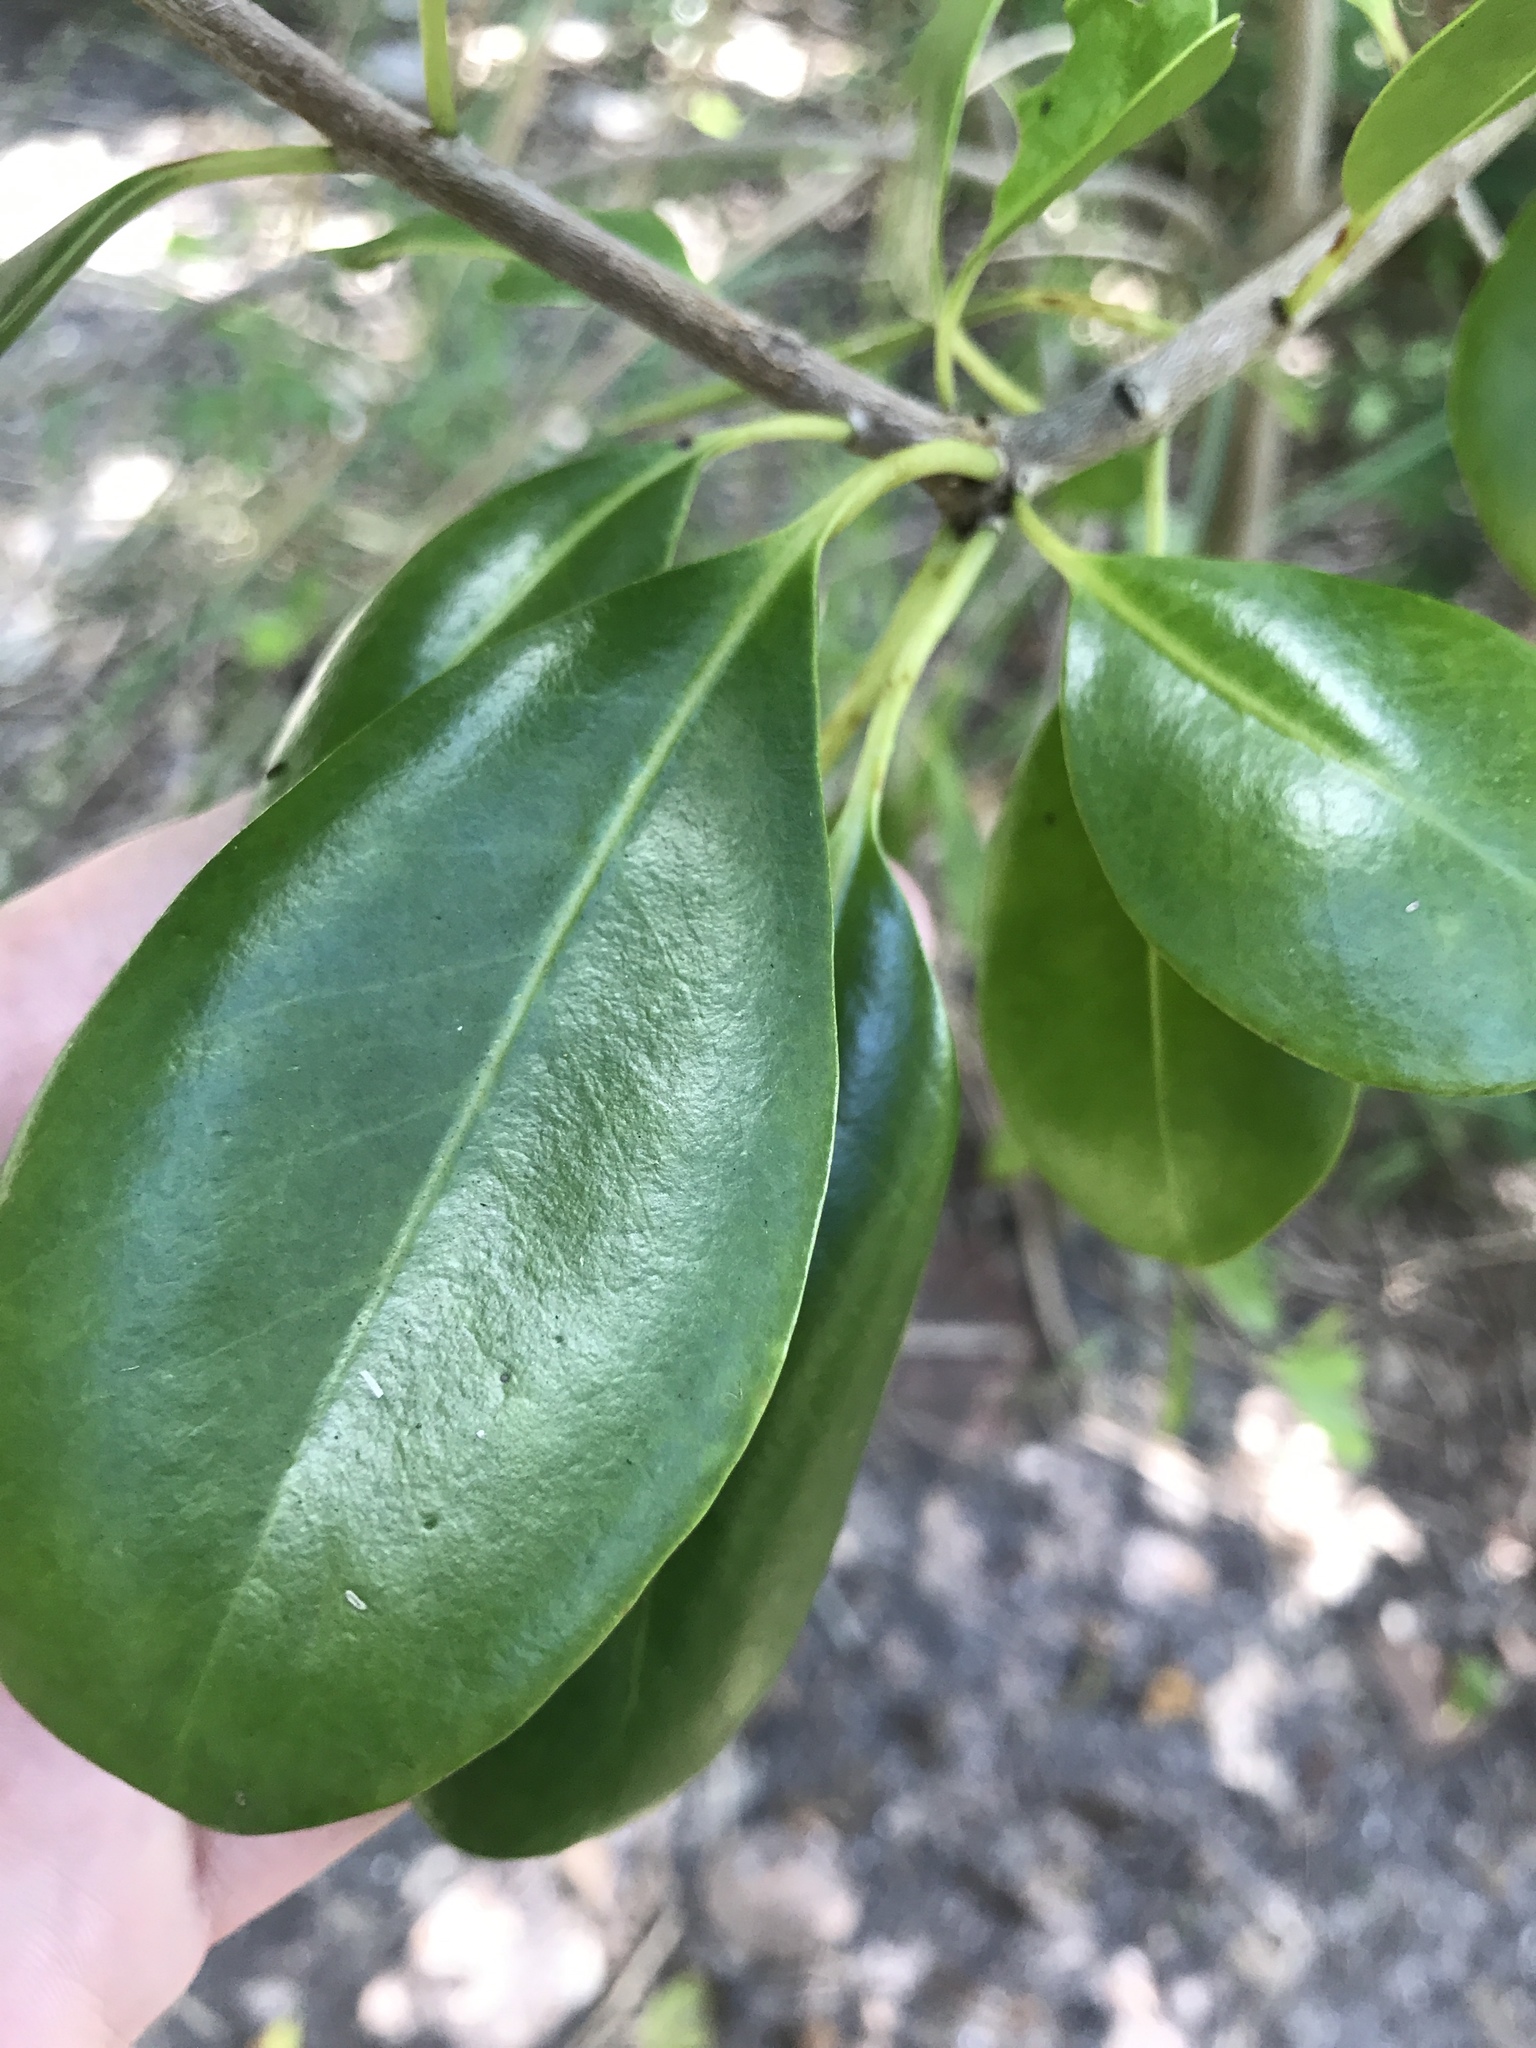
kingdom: Plantae
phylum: Tracheophyta
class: Magnoliopsida
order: Caryophyllales
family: Nyctaginaceae
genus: Guapira
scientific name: Guapira discolor
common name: Beeftree
